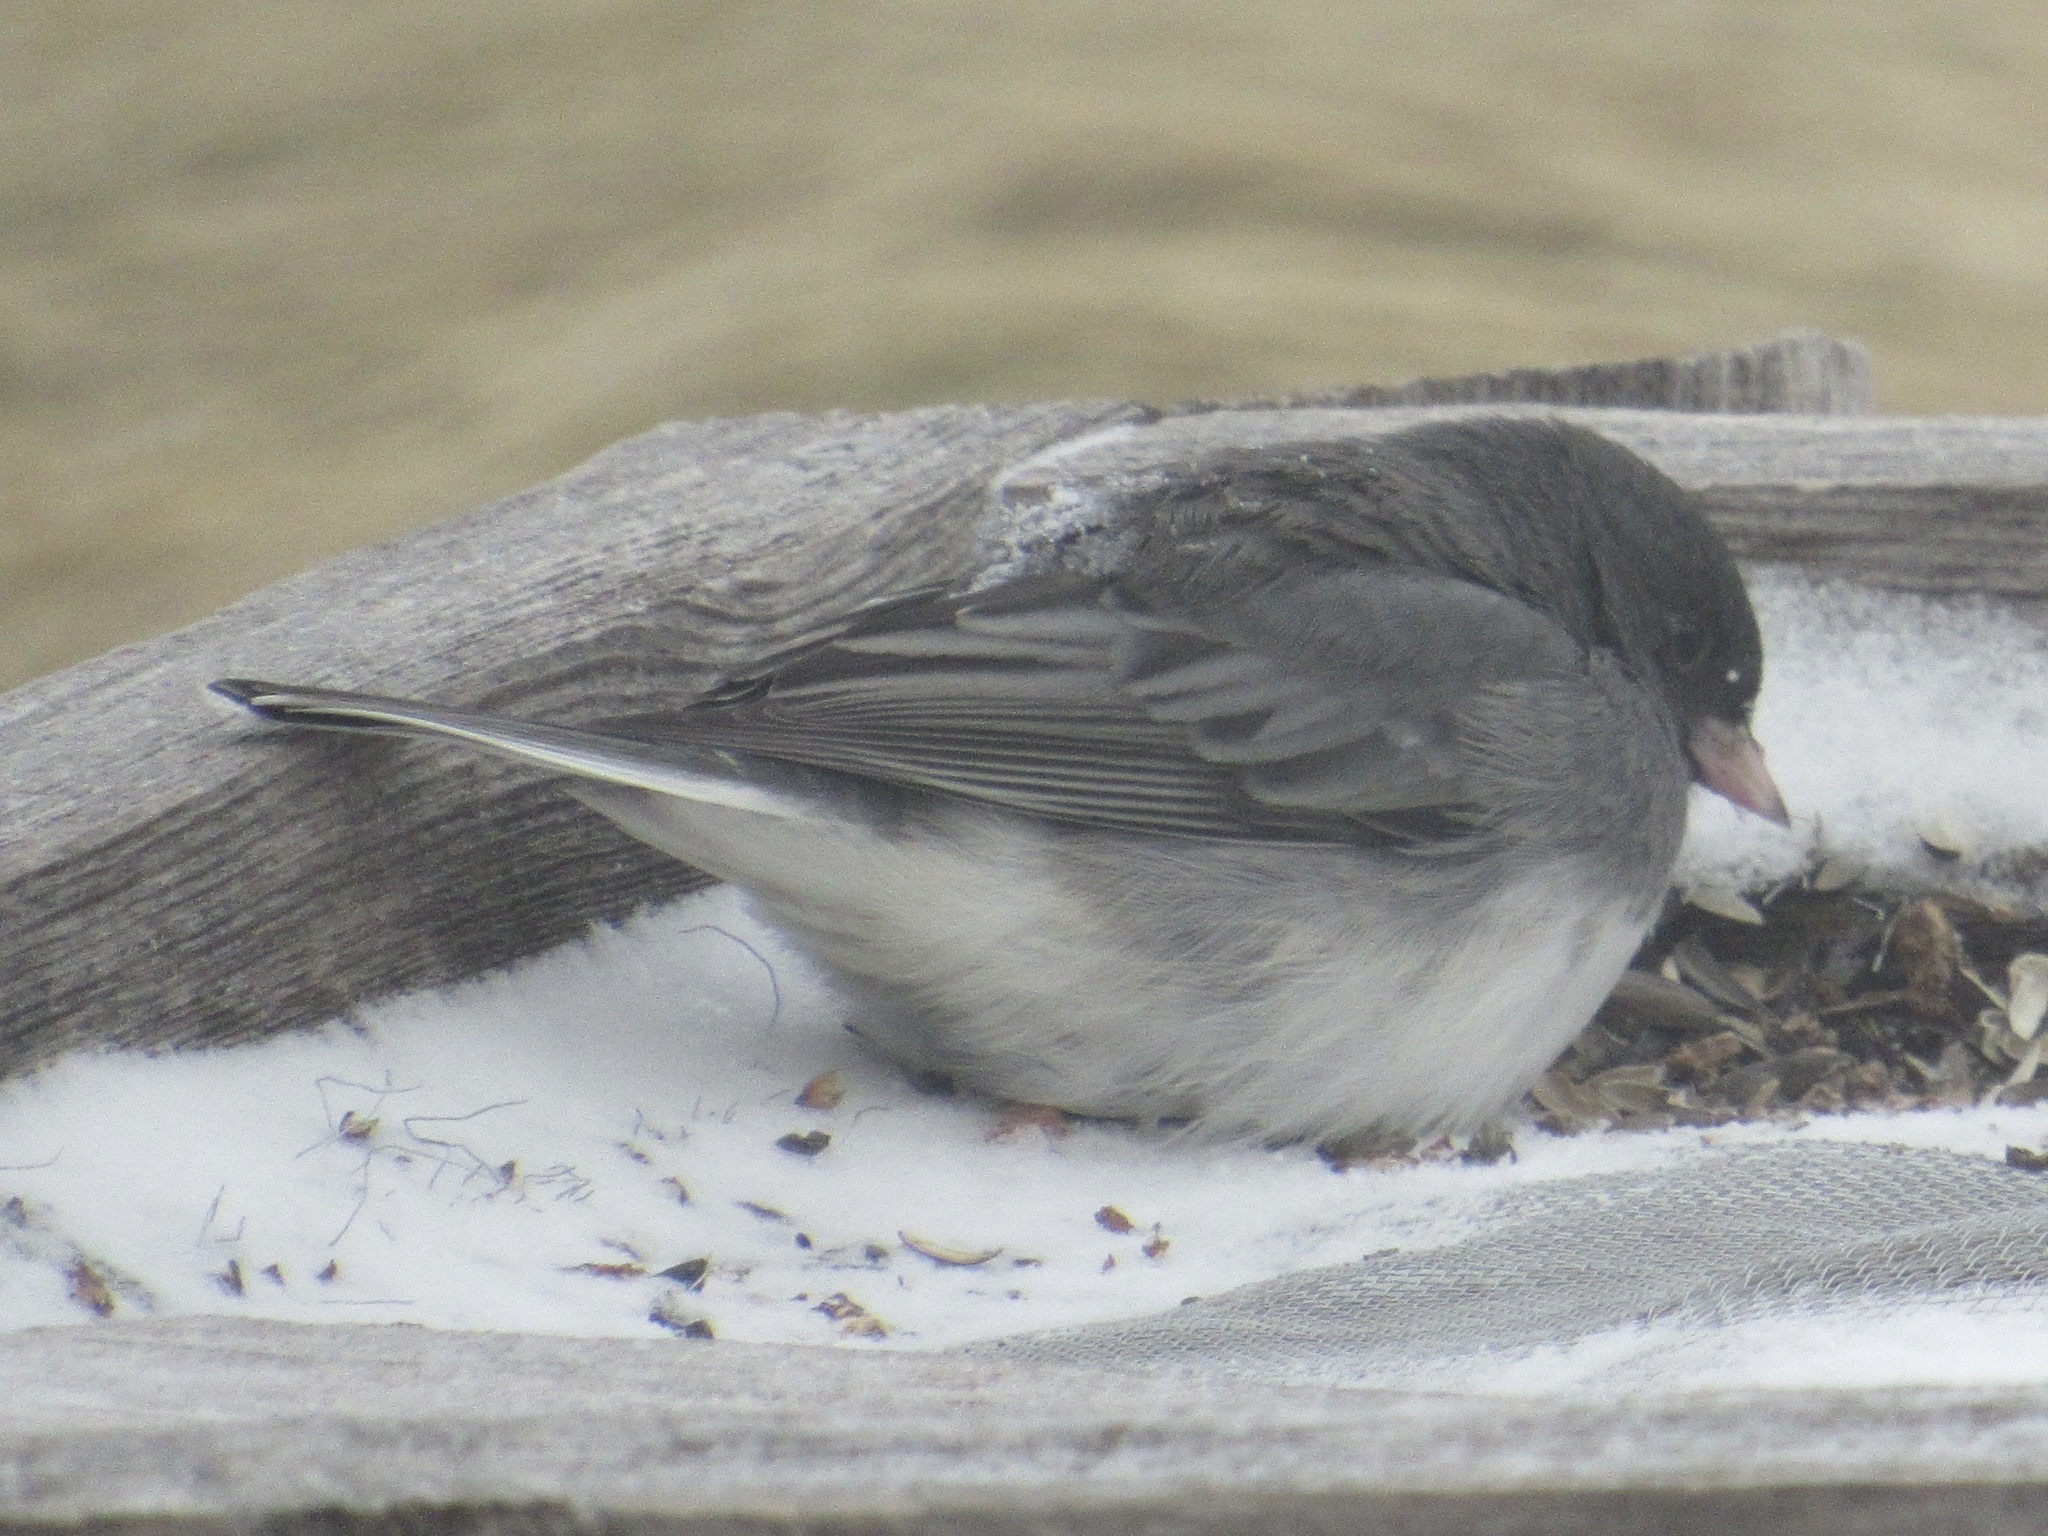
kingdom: Animalia
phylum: Chordata
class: Aves
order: Passeriformes
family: Passerellidae
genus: Junco
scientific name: Junco hyemalis
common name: Dark-eyed junco
